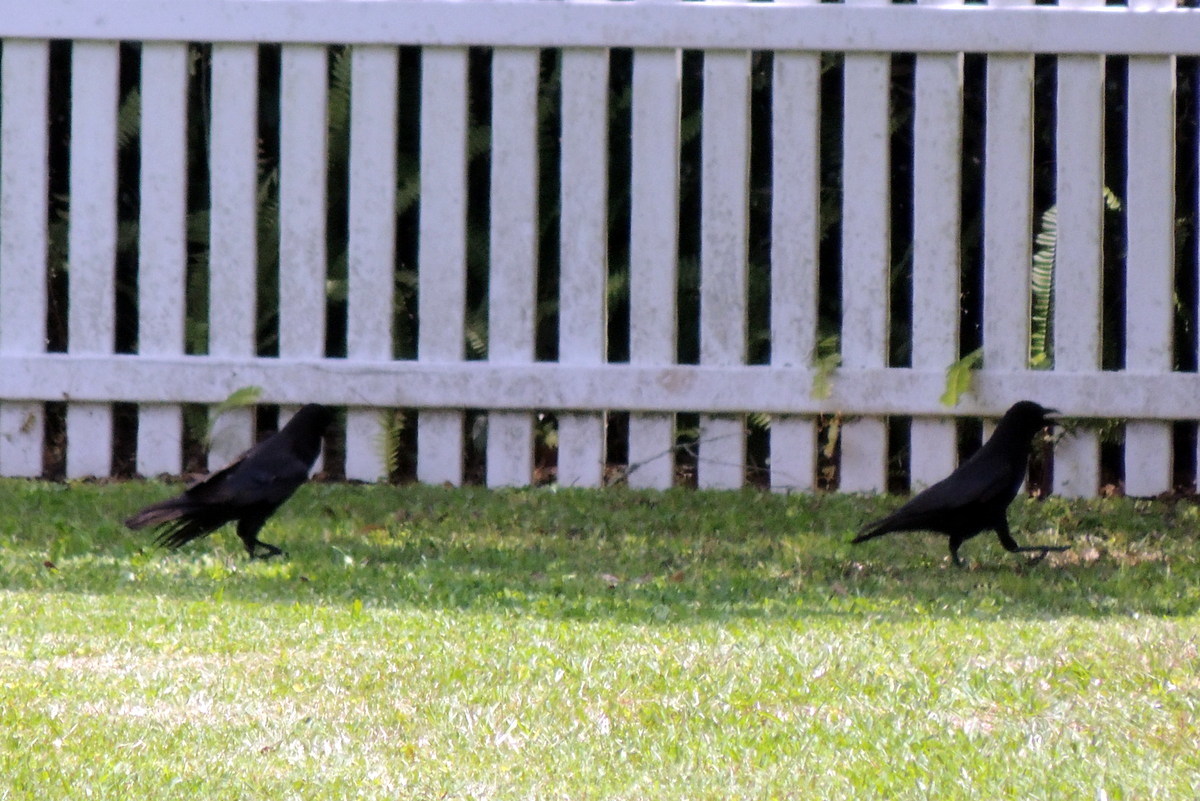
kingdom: Animalia
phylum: Chordata
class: Aves
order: Passeriformes
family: Corvidae
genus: Corvus
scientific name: Corvus brachyrhynchos
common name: American crow
